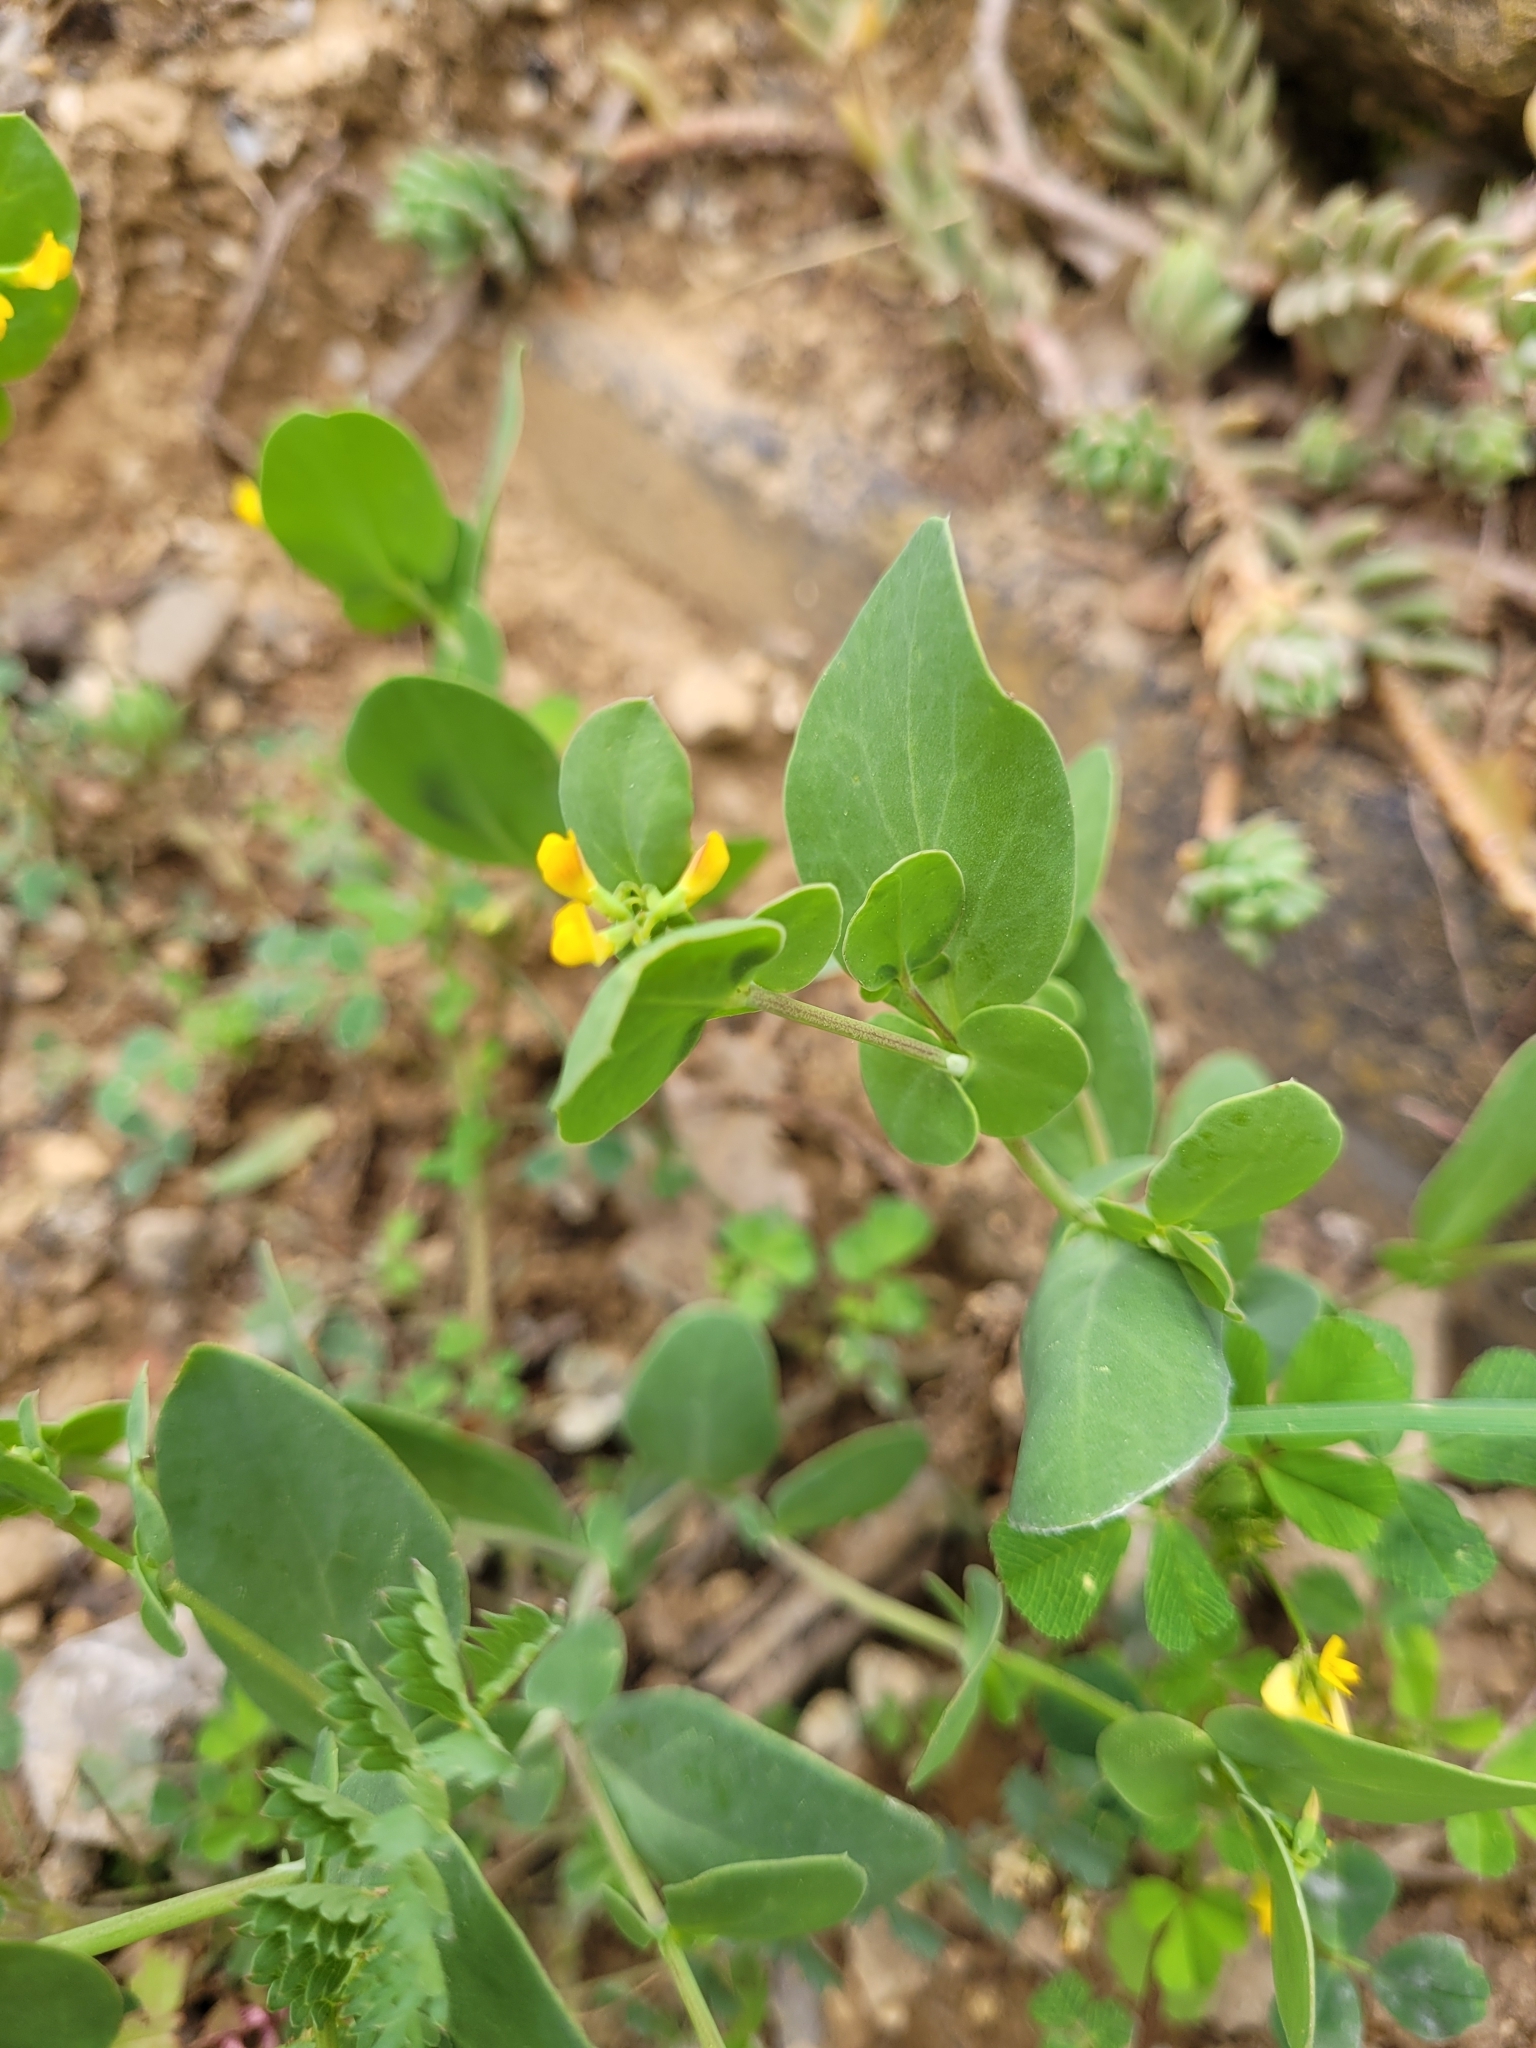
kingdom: Plantae
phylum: Tracheophyta
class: Magnoliopsida
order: Fabales
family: Fabaceae
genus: Coronilla
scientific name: Coronilla scorpioides
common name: Annual scorpion-vetch
